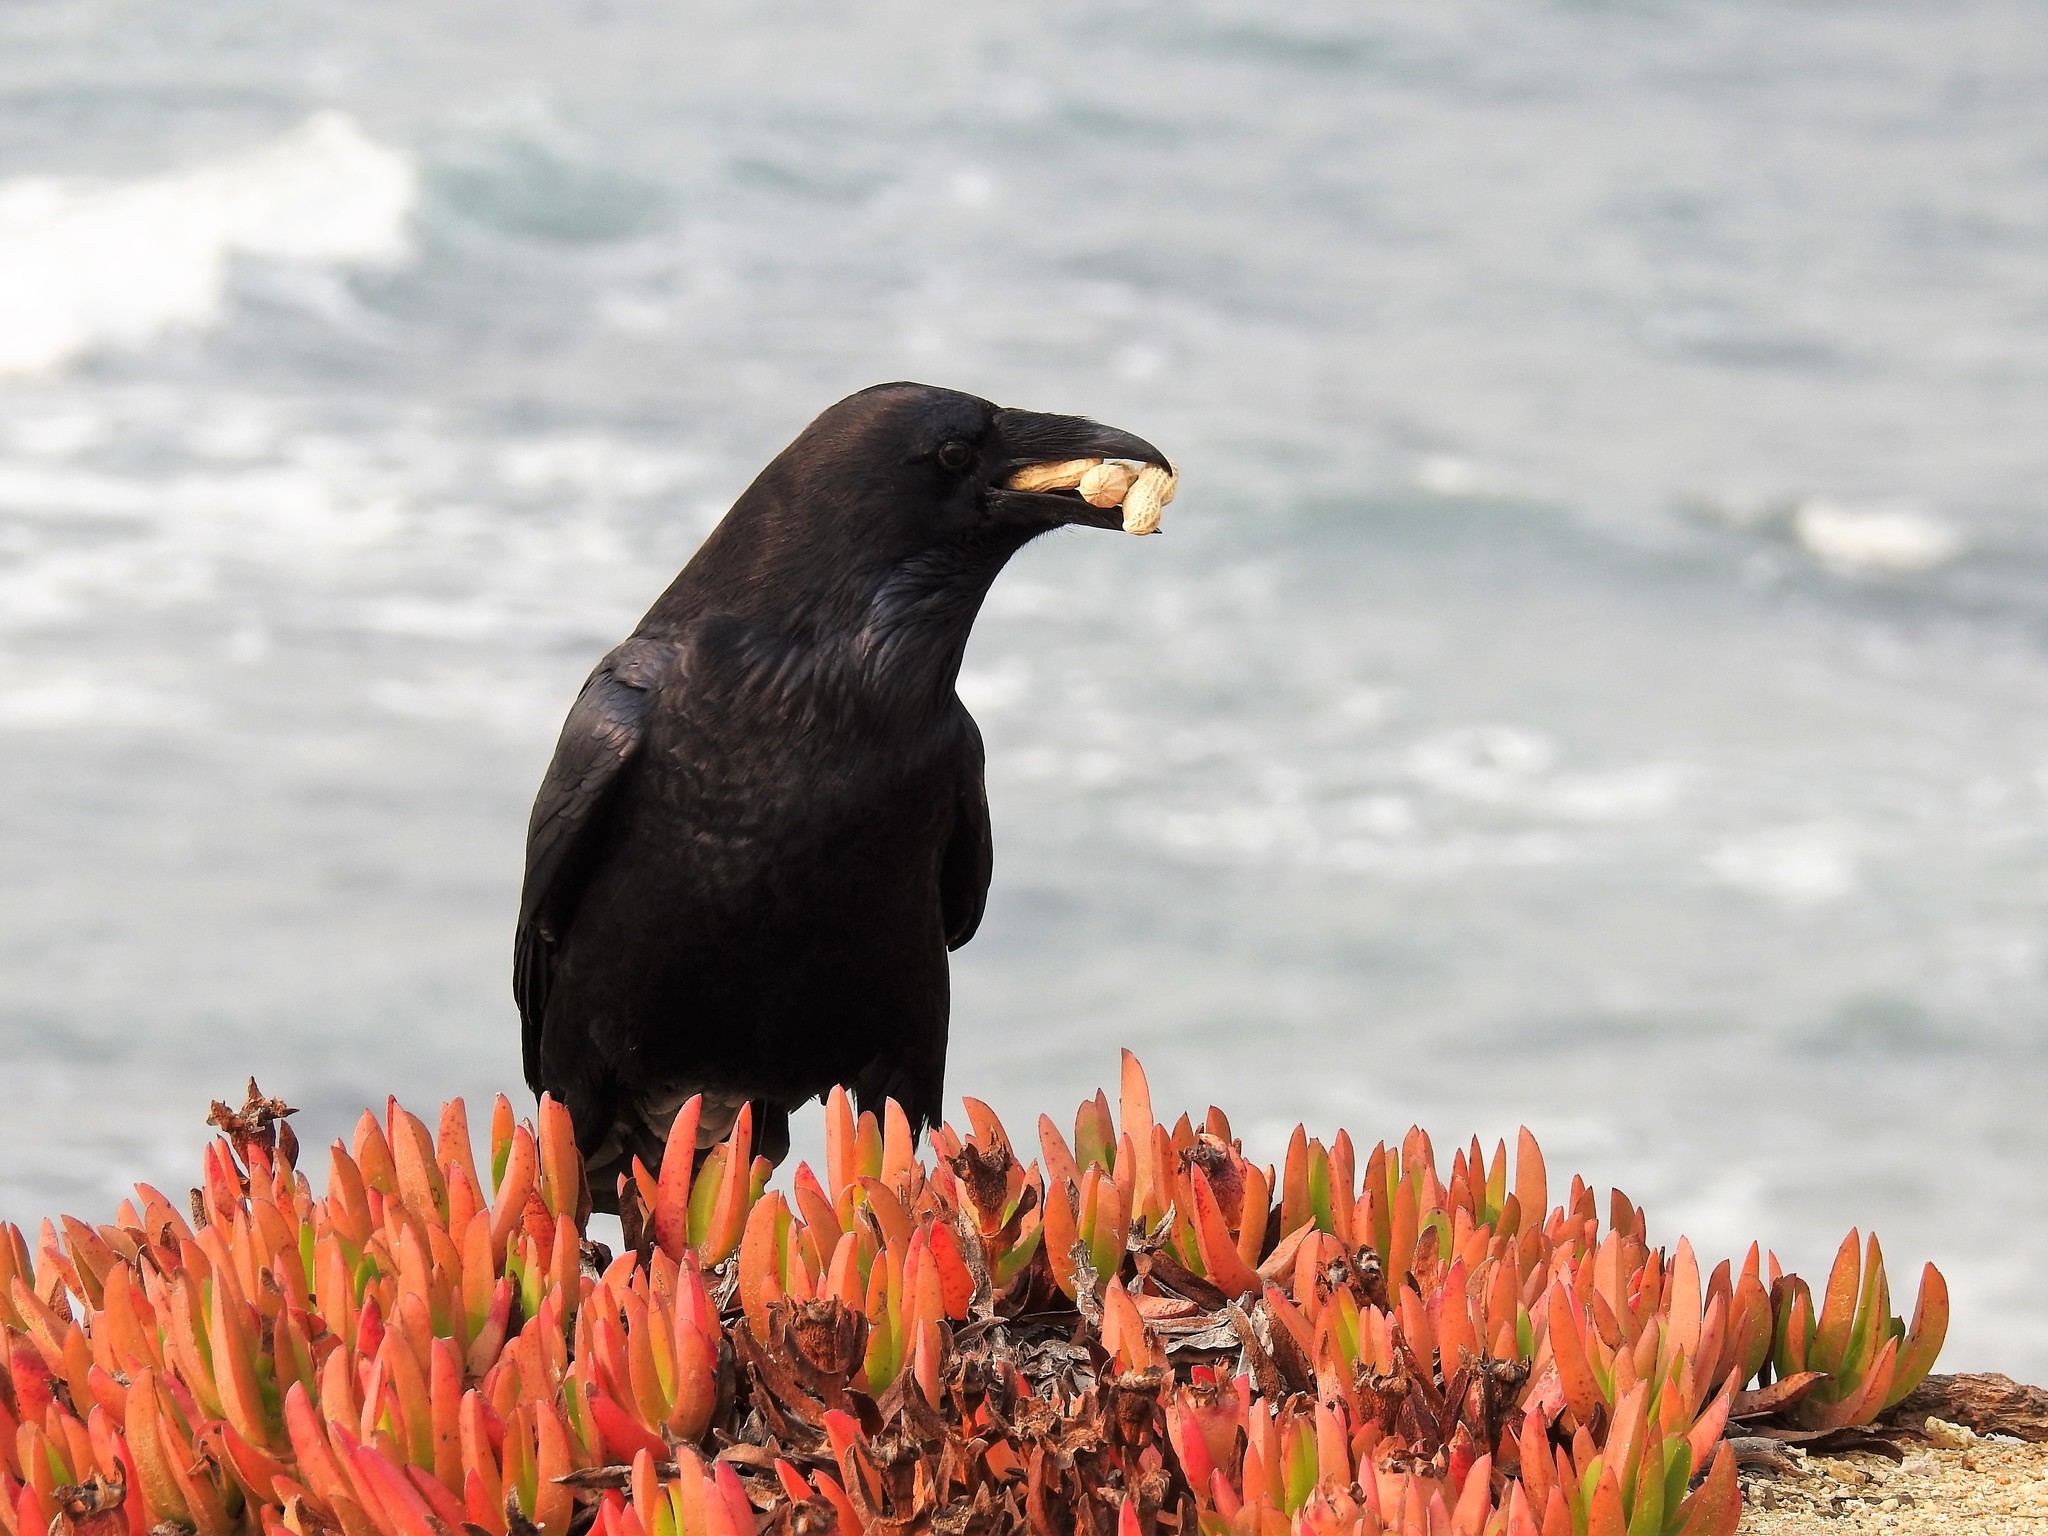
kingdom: Animalia
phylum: Chordata
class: Aves
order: Passeriformes
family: Corvidae
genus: Corvus
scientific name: Corvus corax
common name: Common raven
